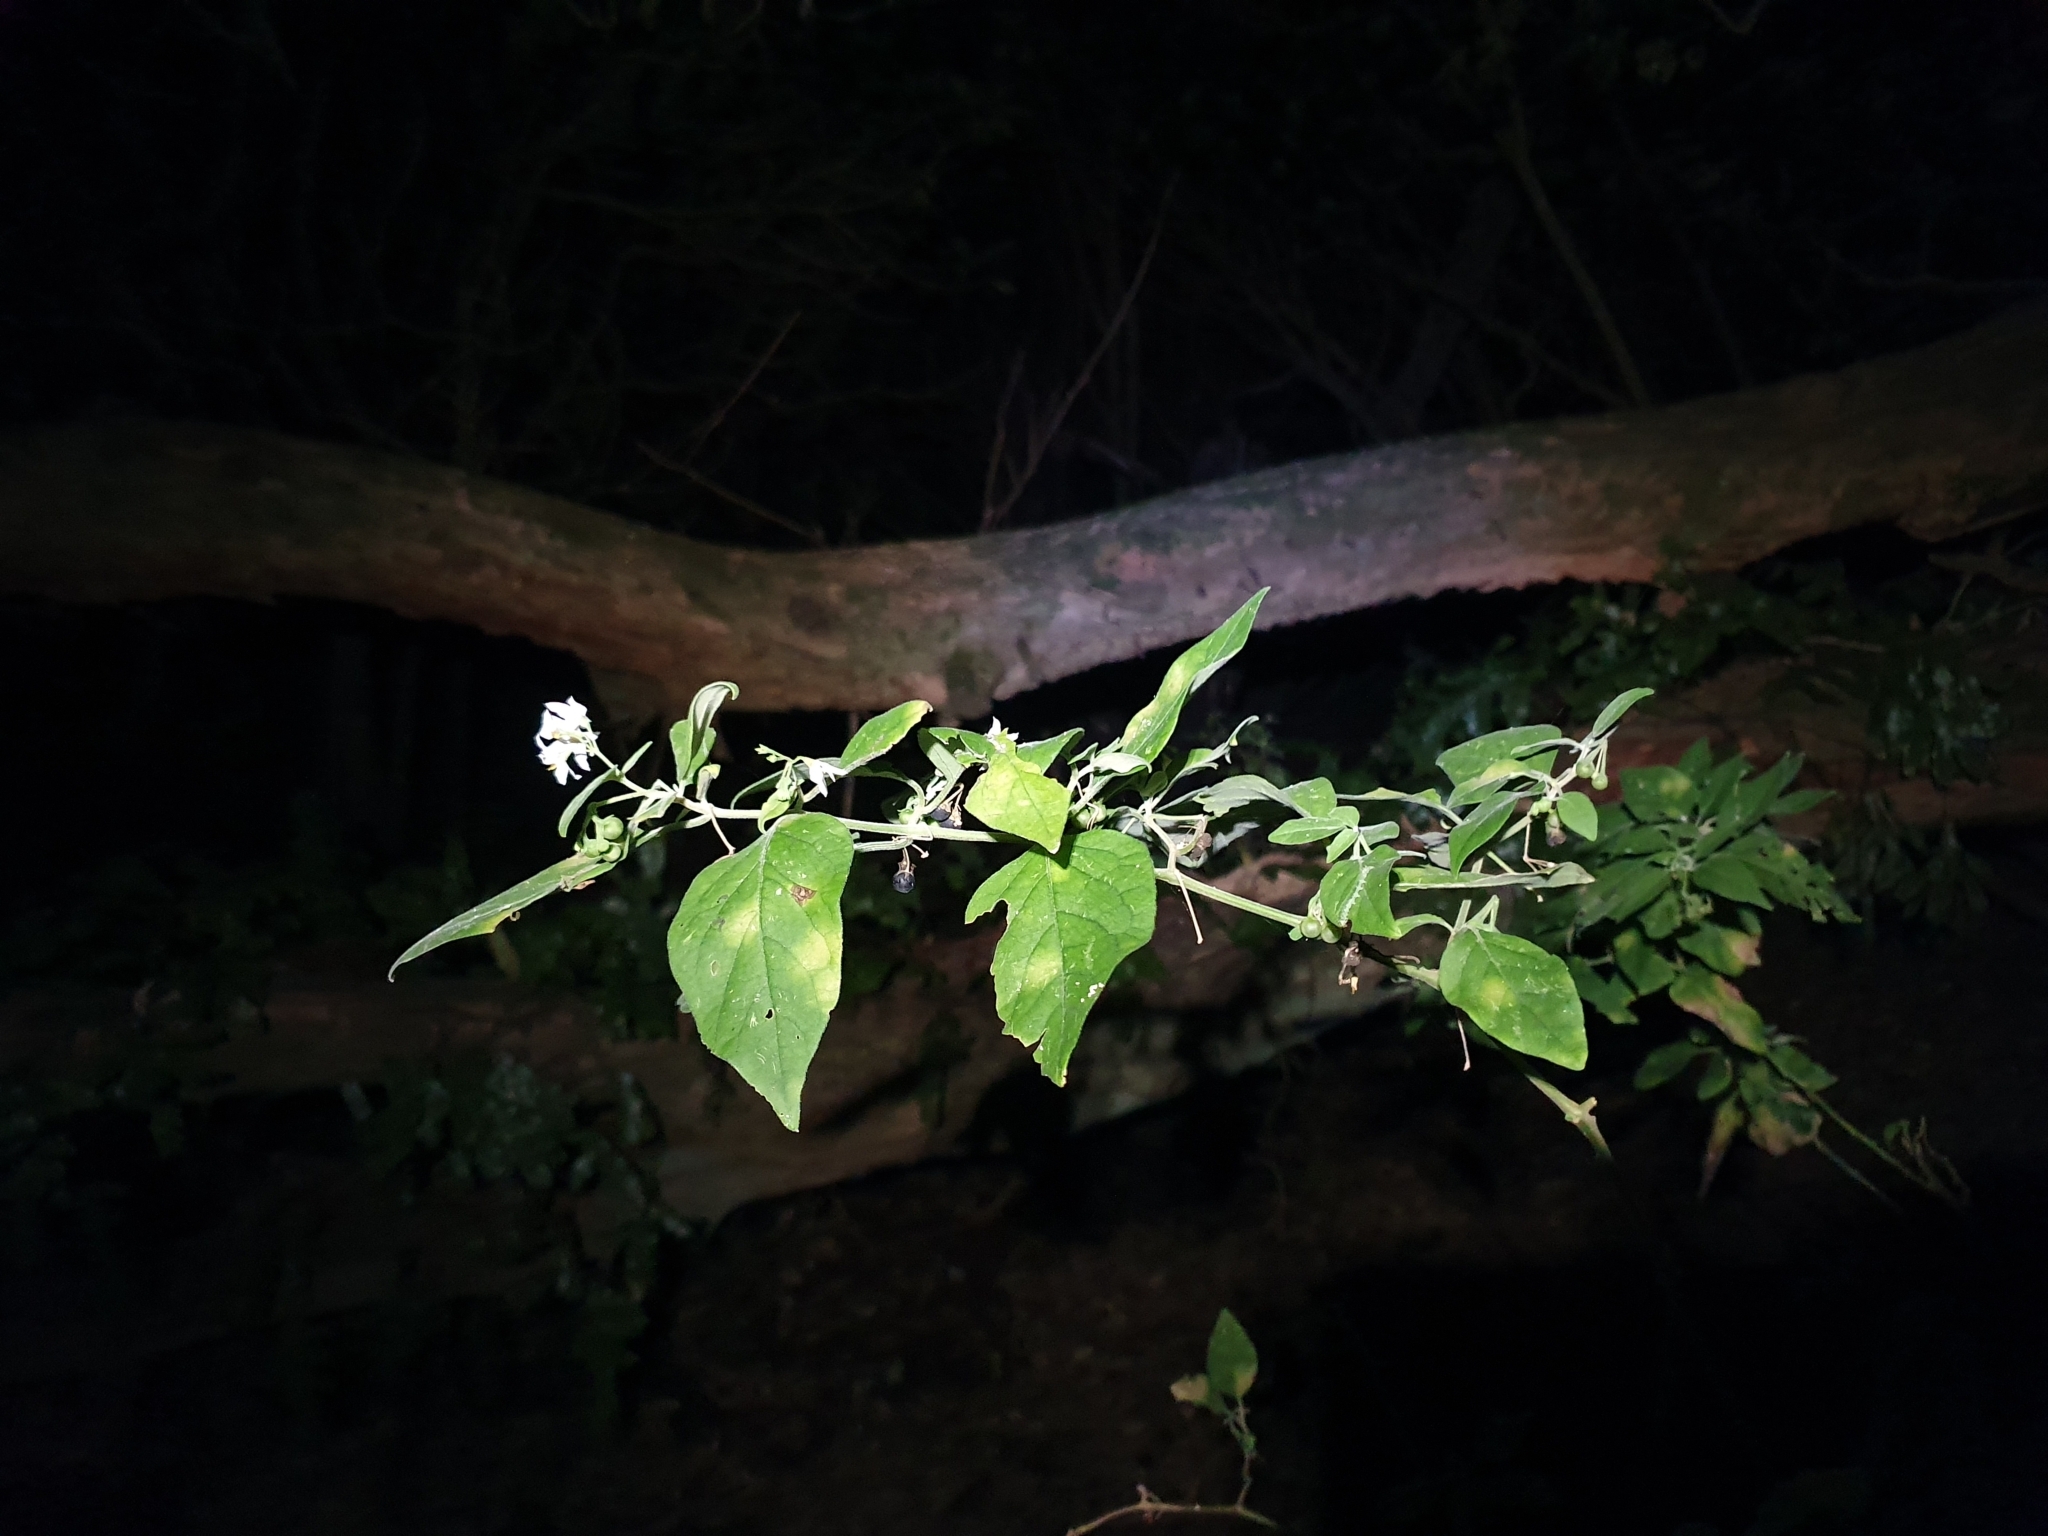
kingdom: Plantae
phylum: Tracheophyta
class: Magnoliopsida
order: Solanales
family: Solanaceae
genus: Solanum
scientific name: Solanum chenopodioides
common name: Tall nightshade
